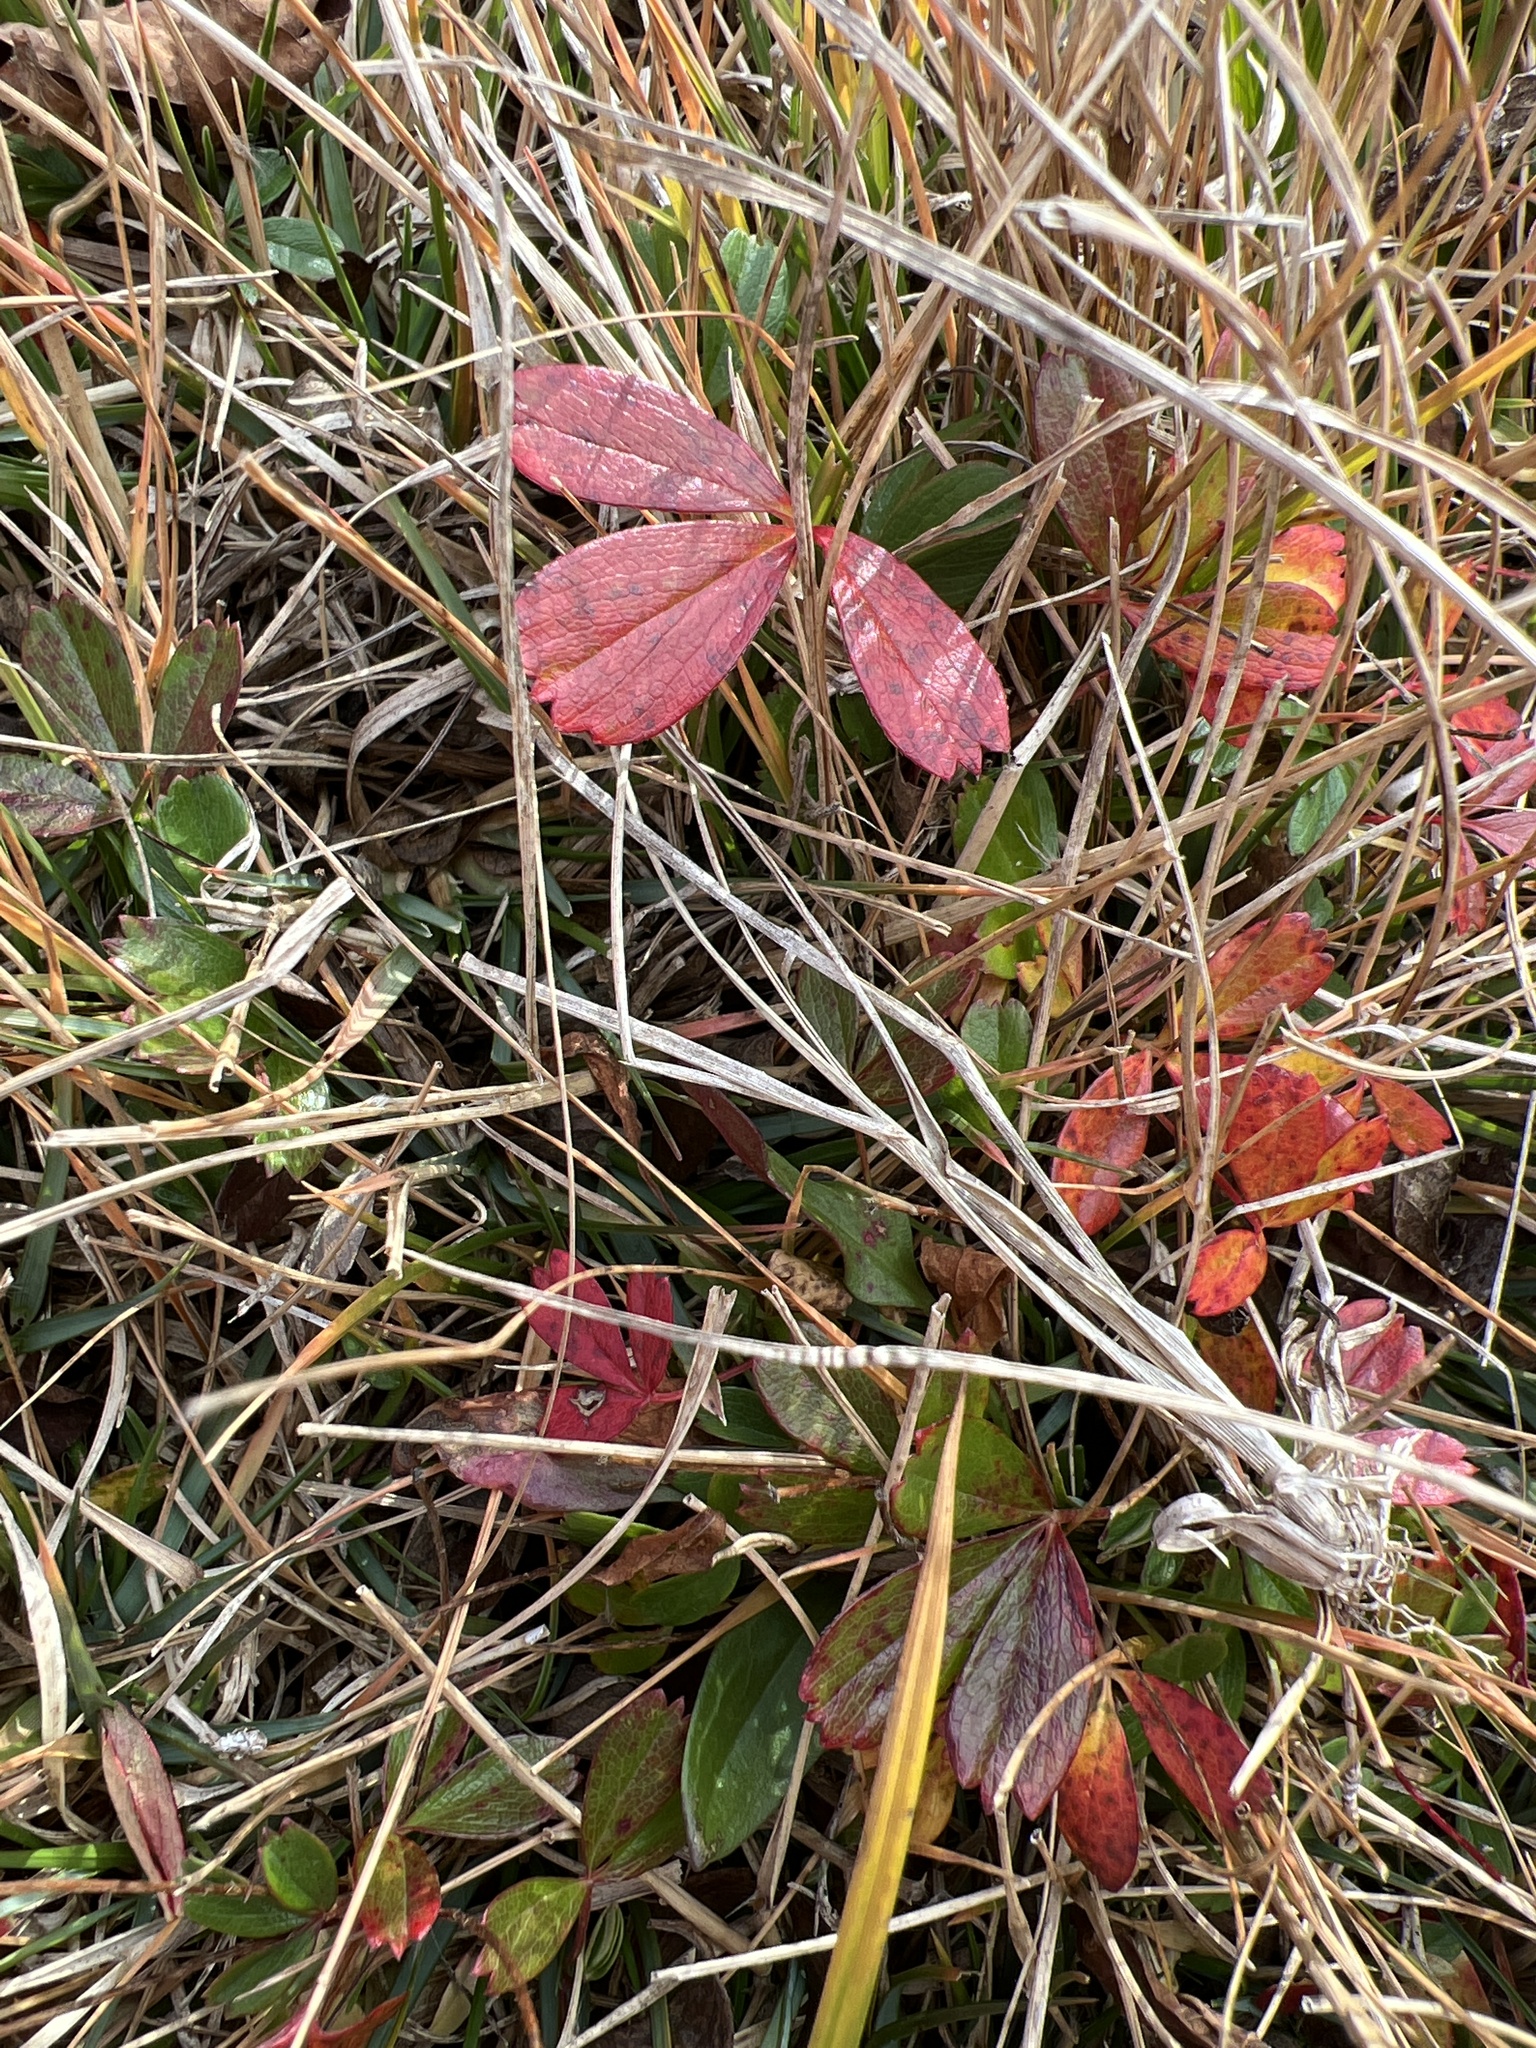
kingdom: Plantae
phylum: Tracheophyta
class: Magnoliopsida
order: Rosales
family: Rosaceae
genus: Sibbaldia
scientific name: Sibbaldia tridentata
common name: Three-toothed cinquefoil
